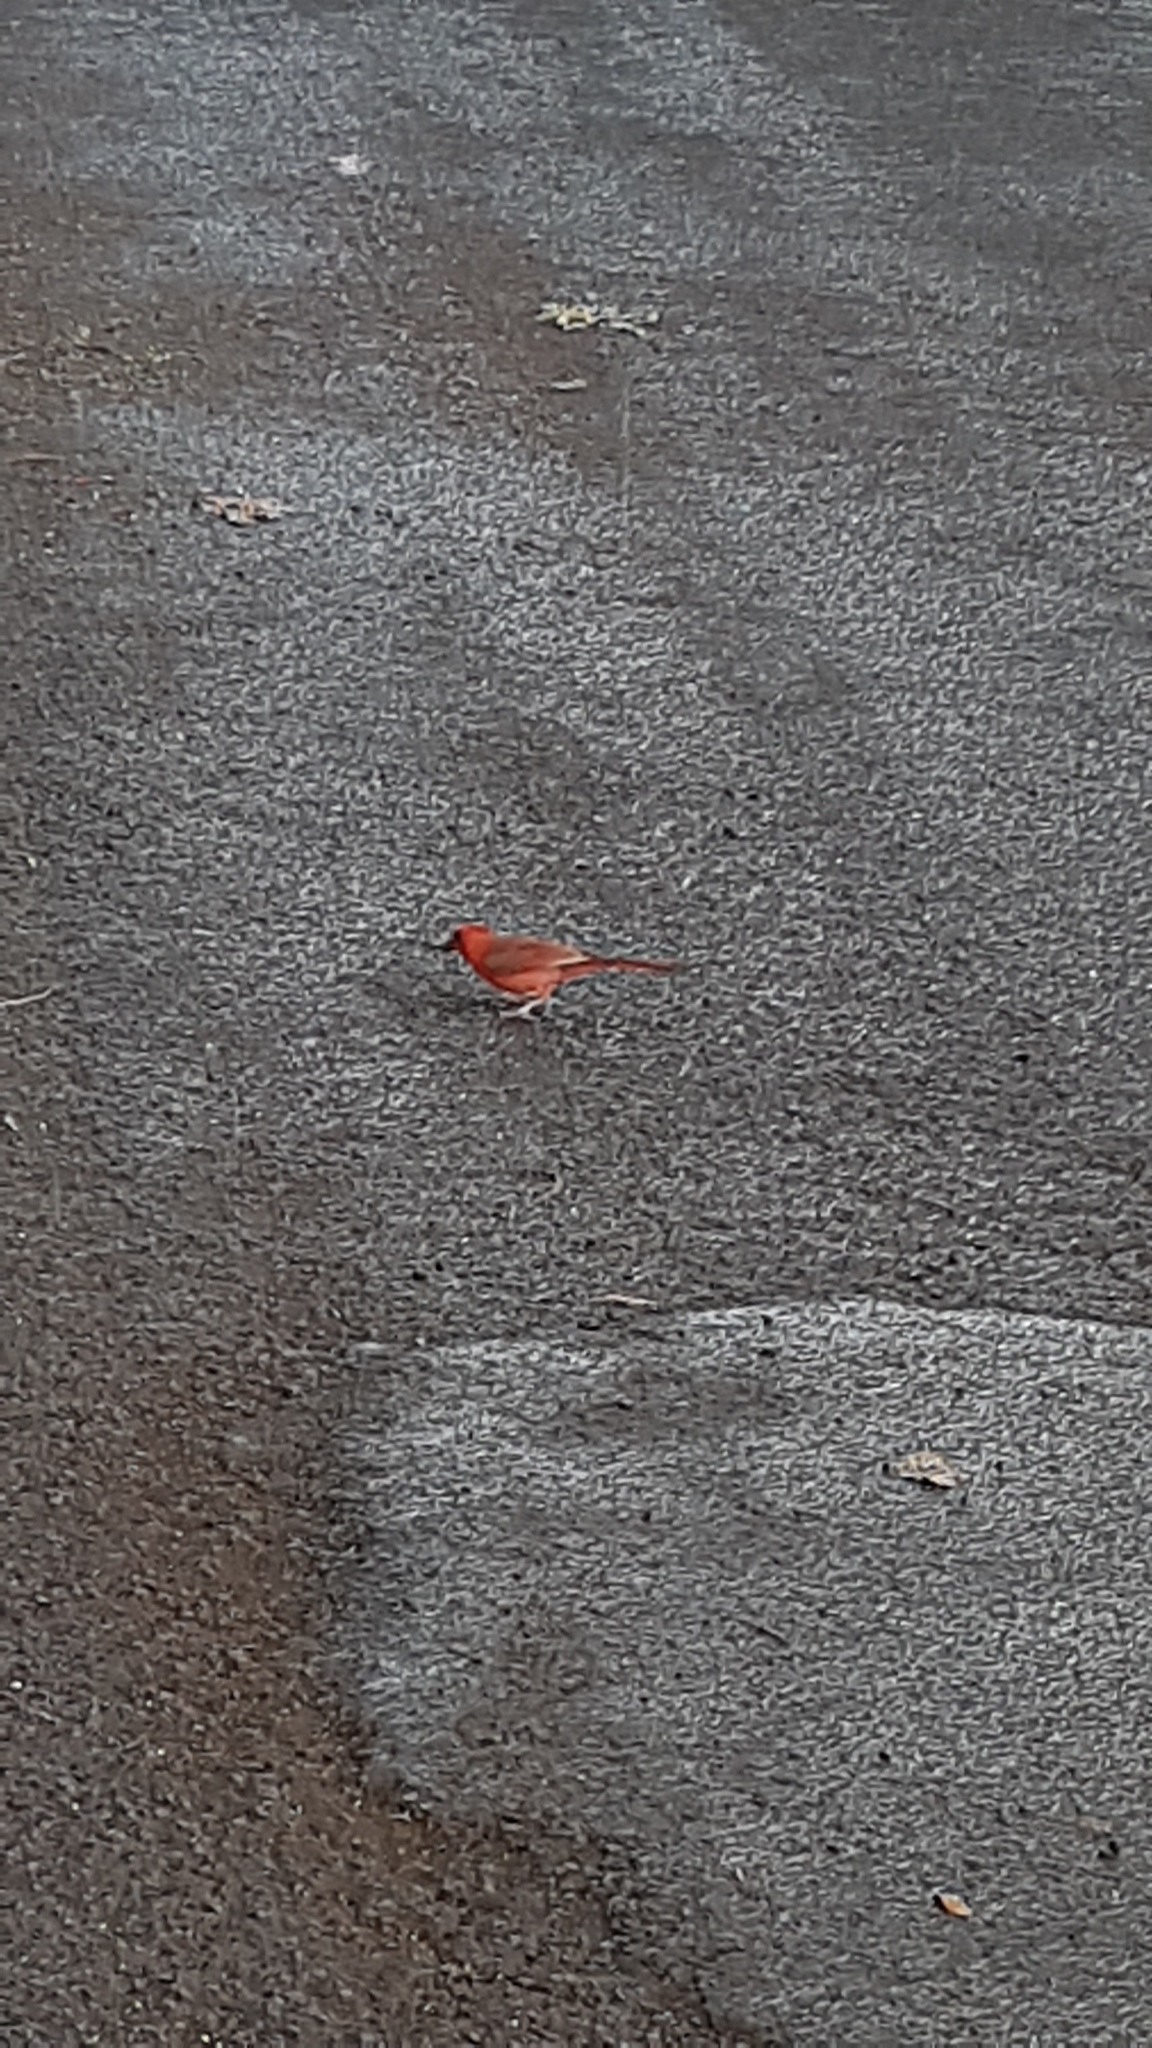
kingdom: Animalia
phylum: Chordata
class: Aves
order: Passeriformes
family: Cardinalidae
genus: Cardinalis
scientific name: Cardinalis cardinalis
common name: Northern cardinal
